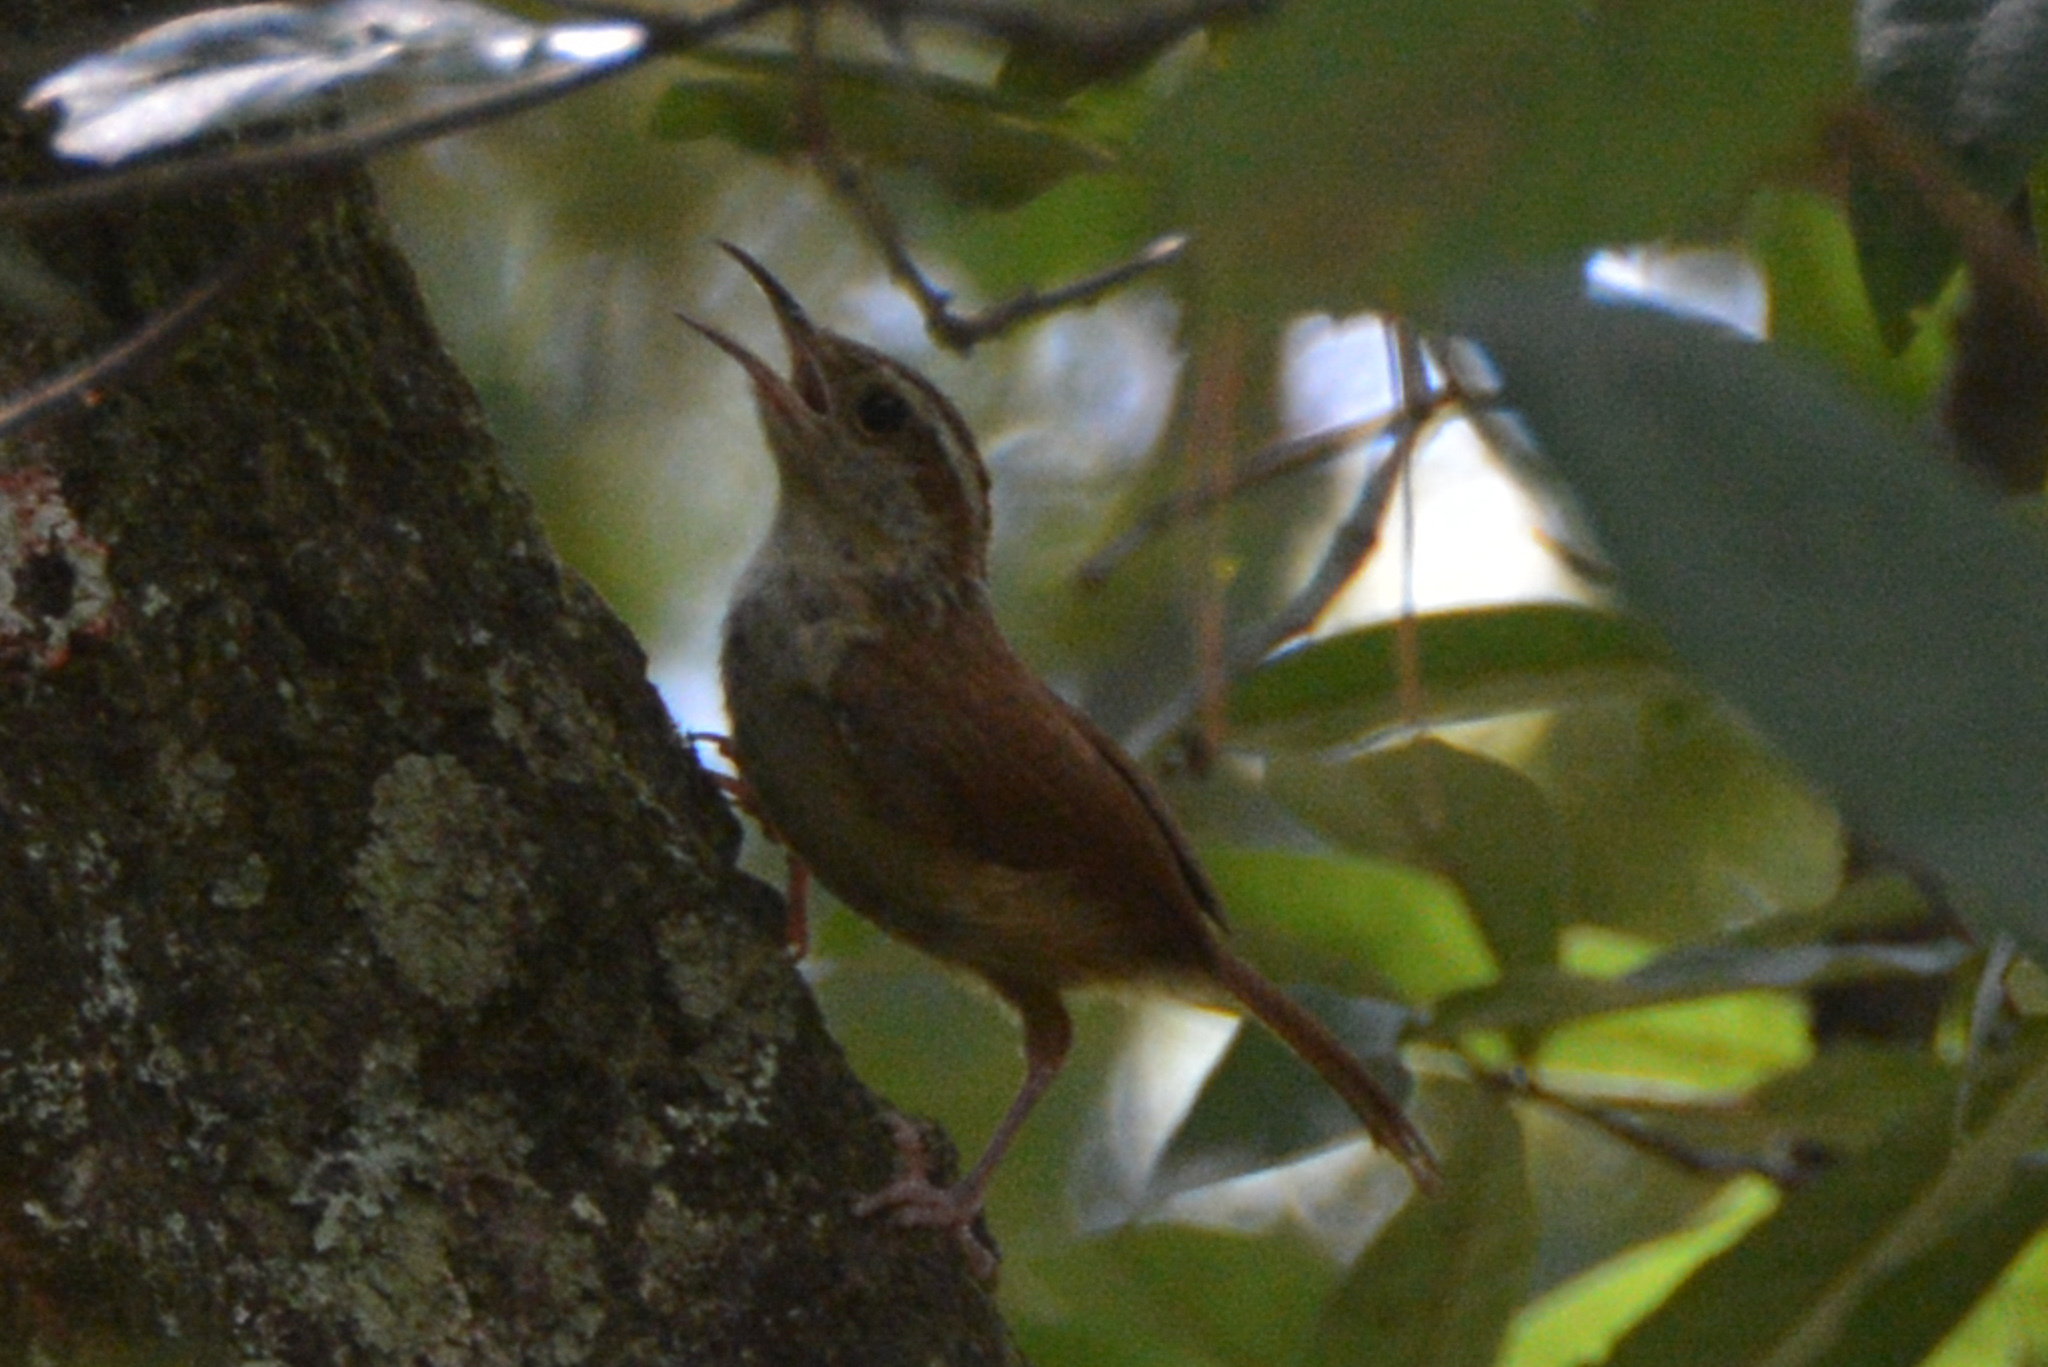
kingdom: Animalia
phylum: Chordata
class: Aves
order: Passeriformes
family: Troglodytidae
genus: Thryothorus
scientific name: Thryothorus ludovicianus
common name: Carolina wren
